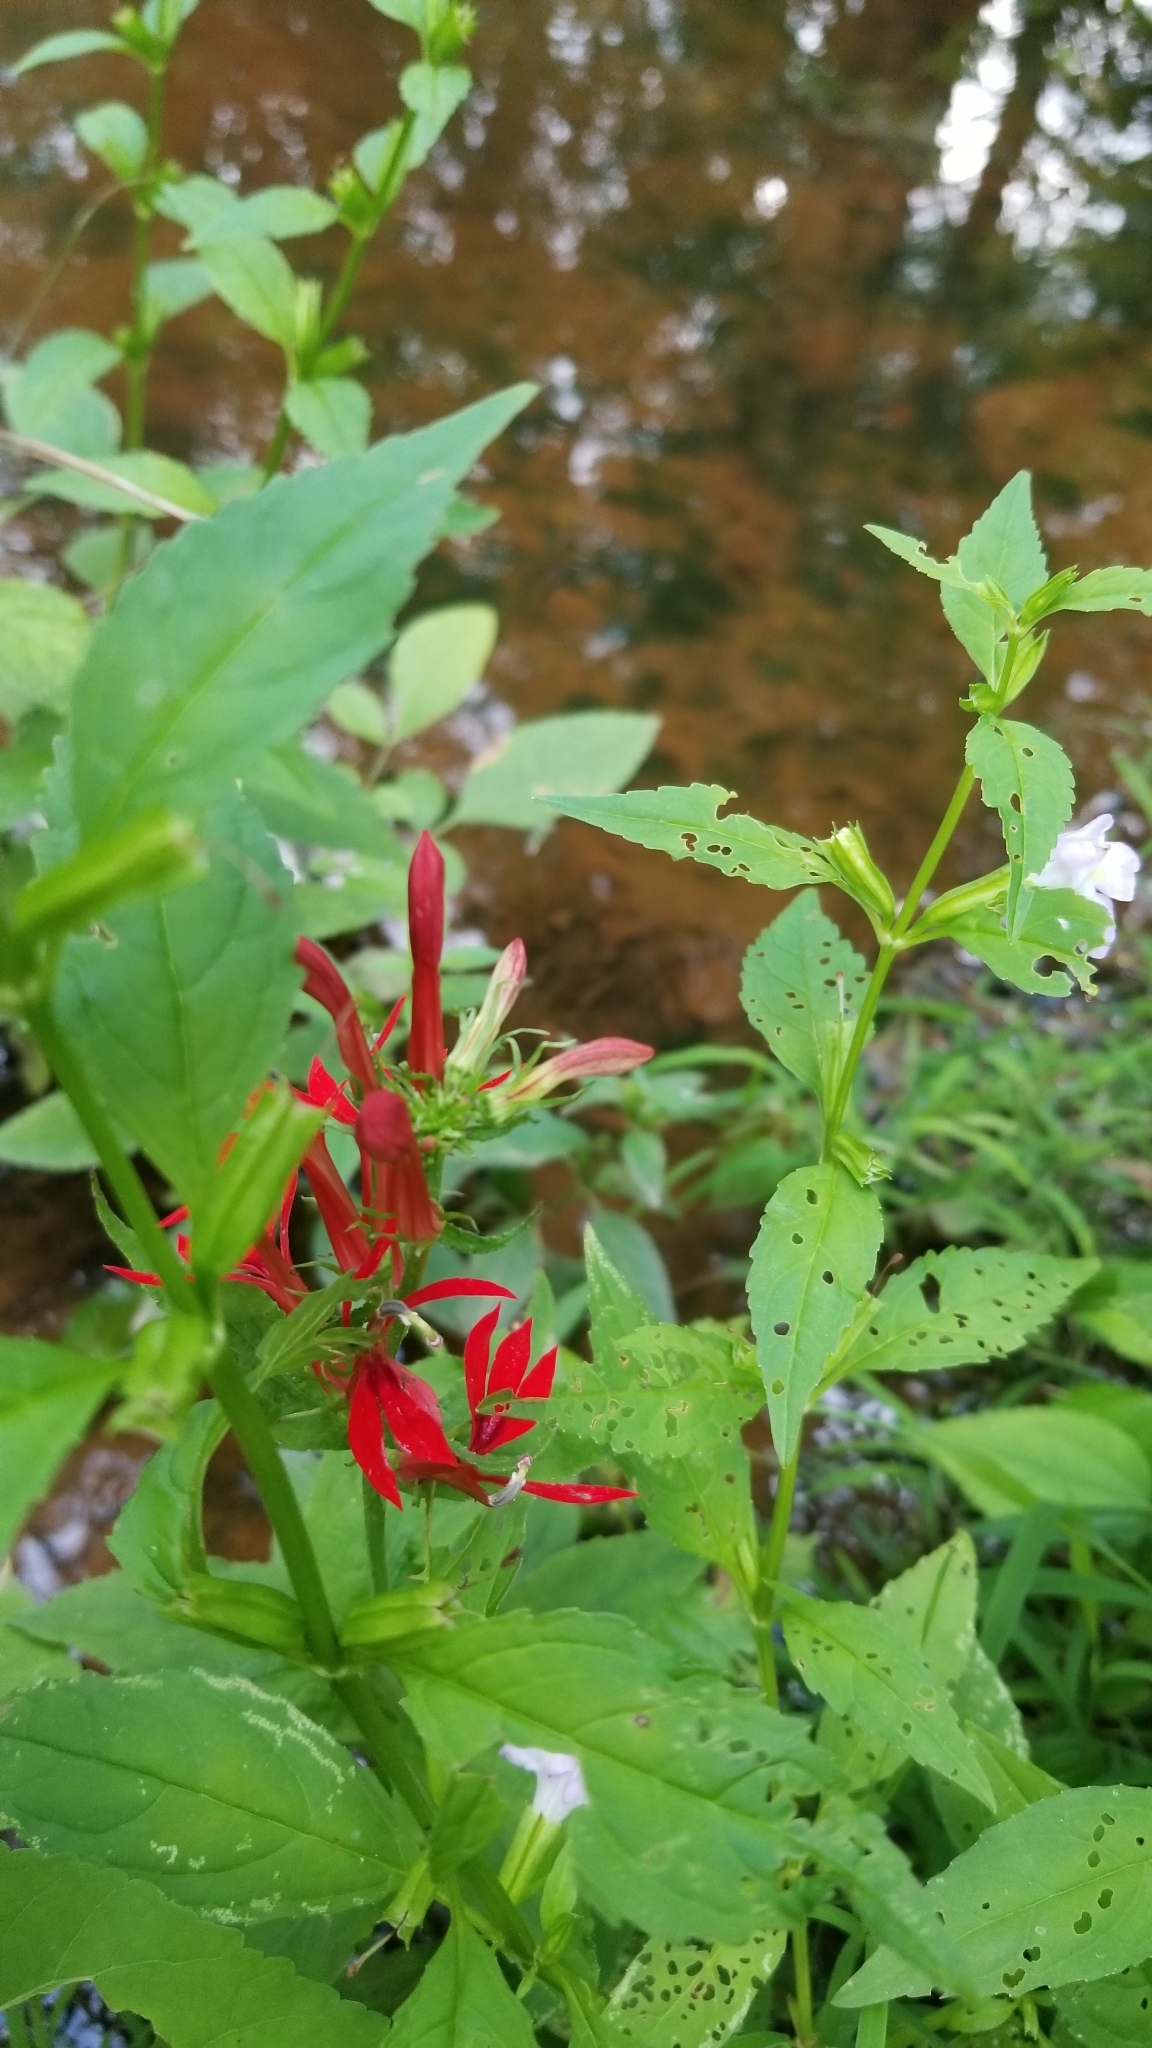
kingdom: Plantae
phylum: Tracheophyta
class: Magnoliopsida
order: Asterales
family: Campanulaceae
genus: Lobelia
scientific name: Lobelia cardinalis
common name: Cardinal flower
